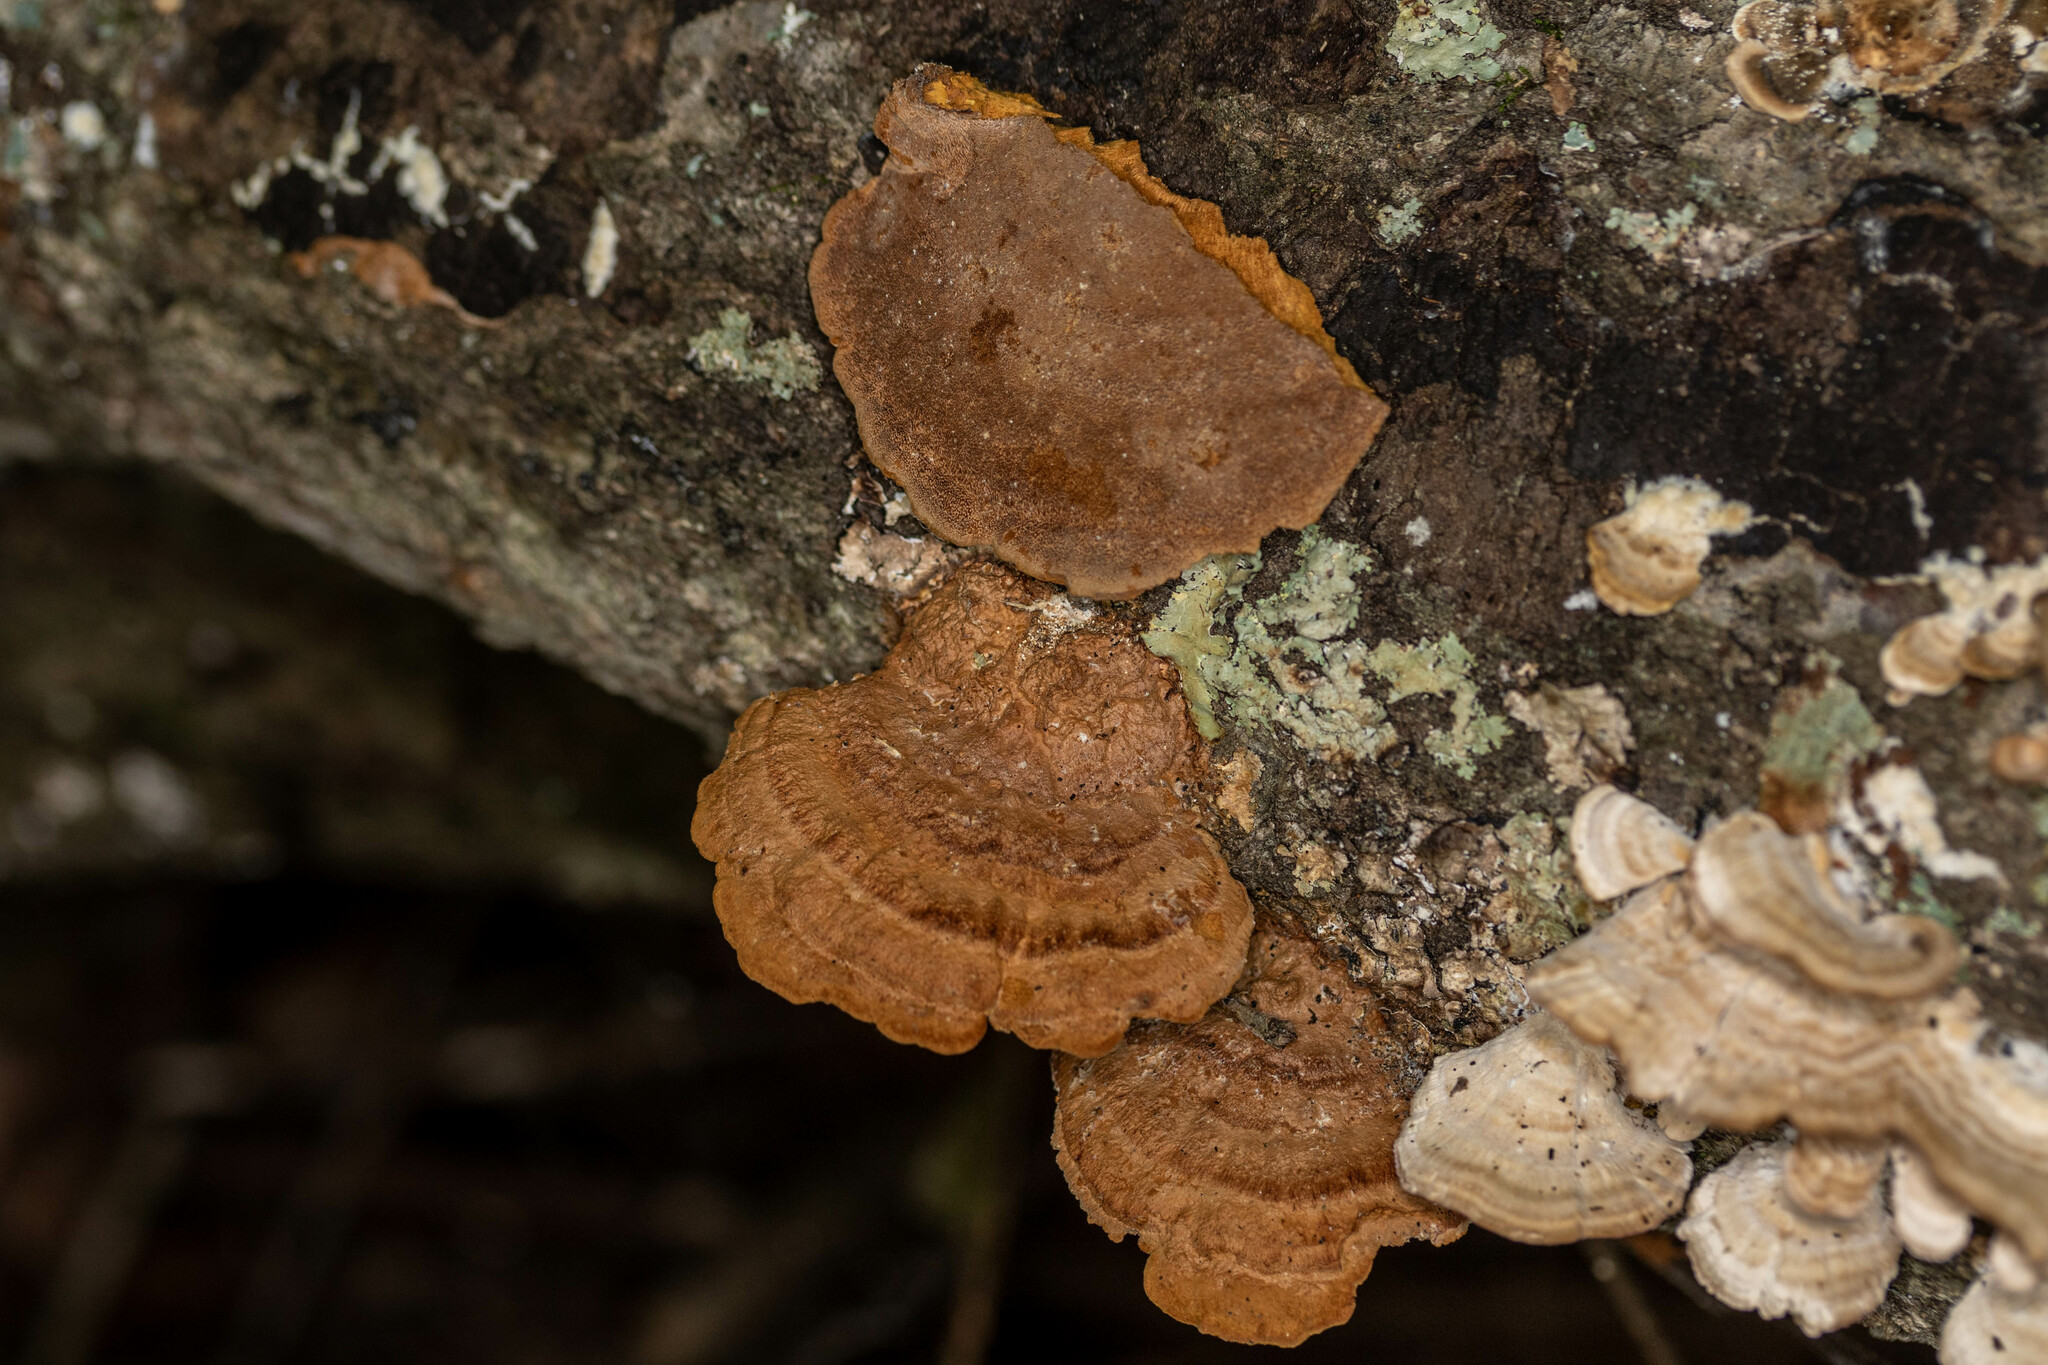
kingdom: Fungi
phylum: Basidiomycota
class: Agaricomycetes
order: Hymenochaetales
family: Hymenochaetaceae
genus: Phellinus
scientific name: Phellinus gilvus
